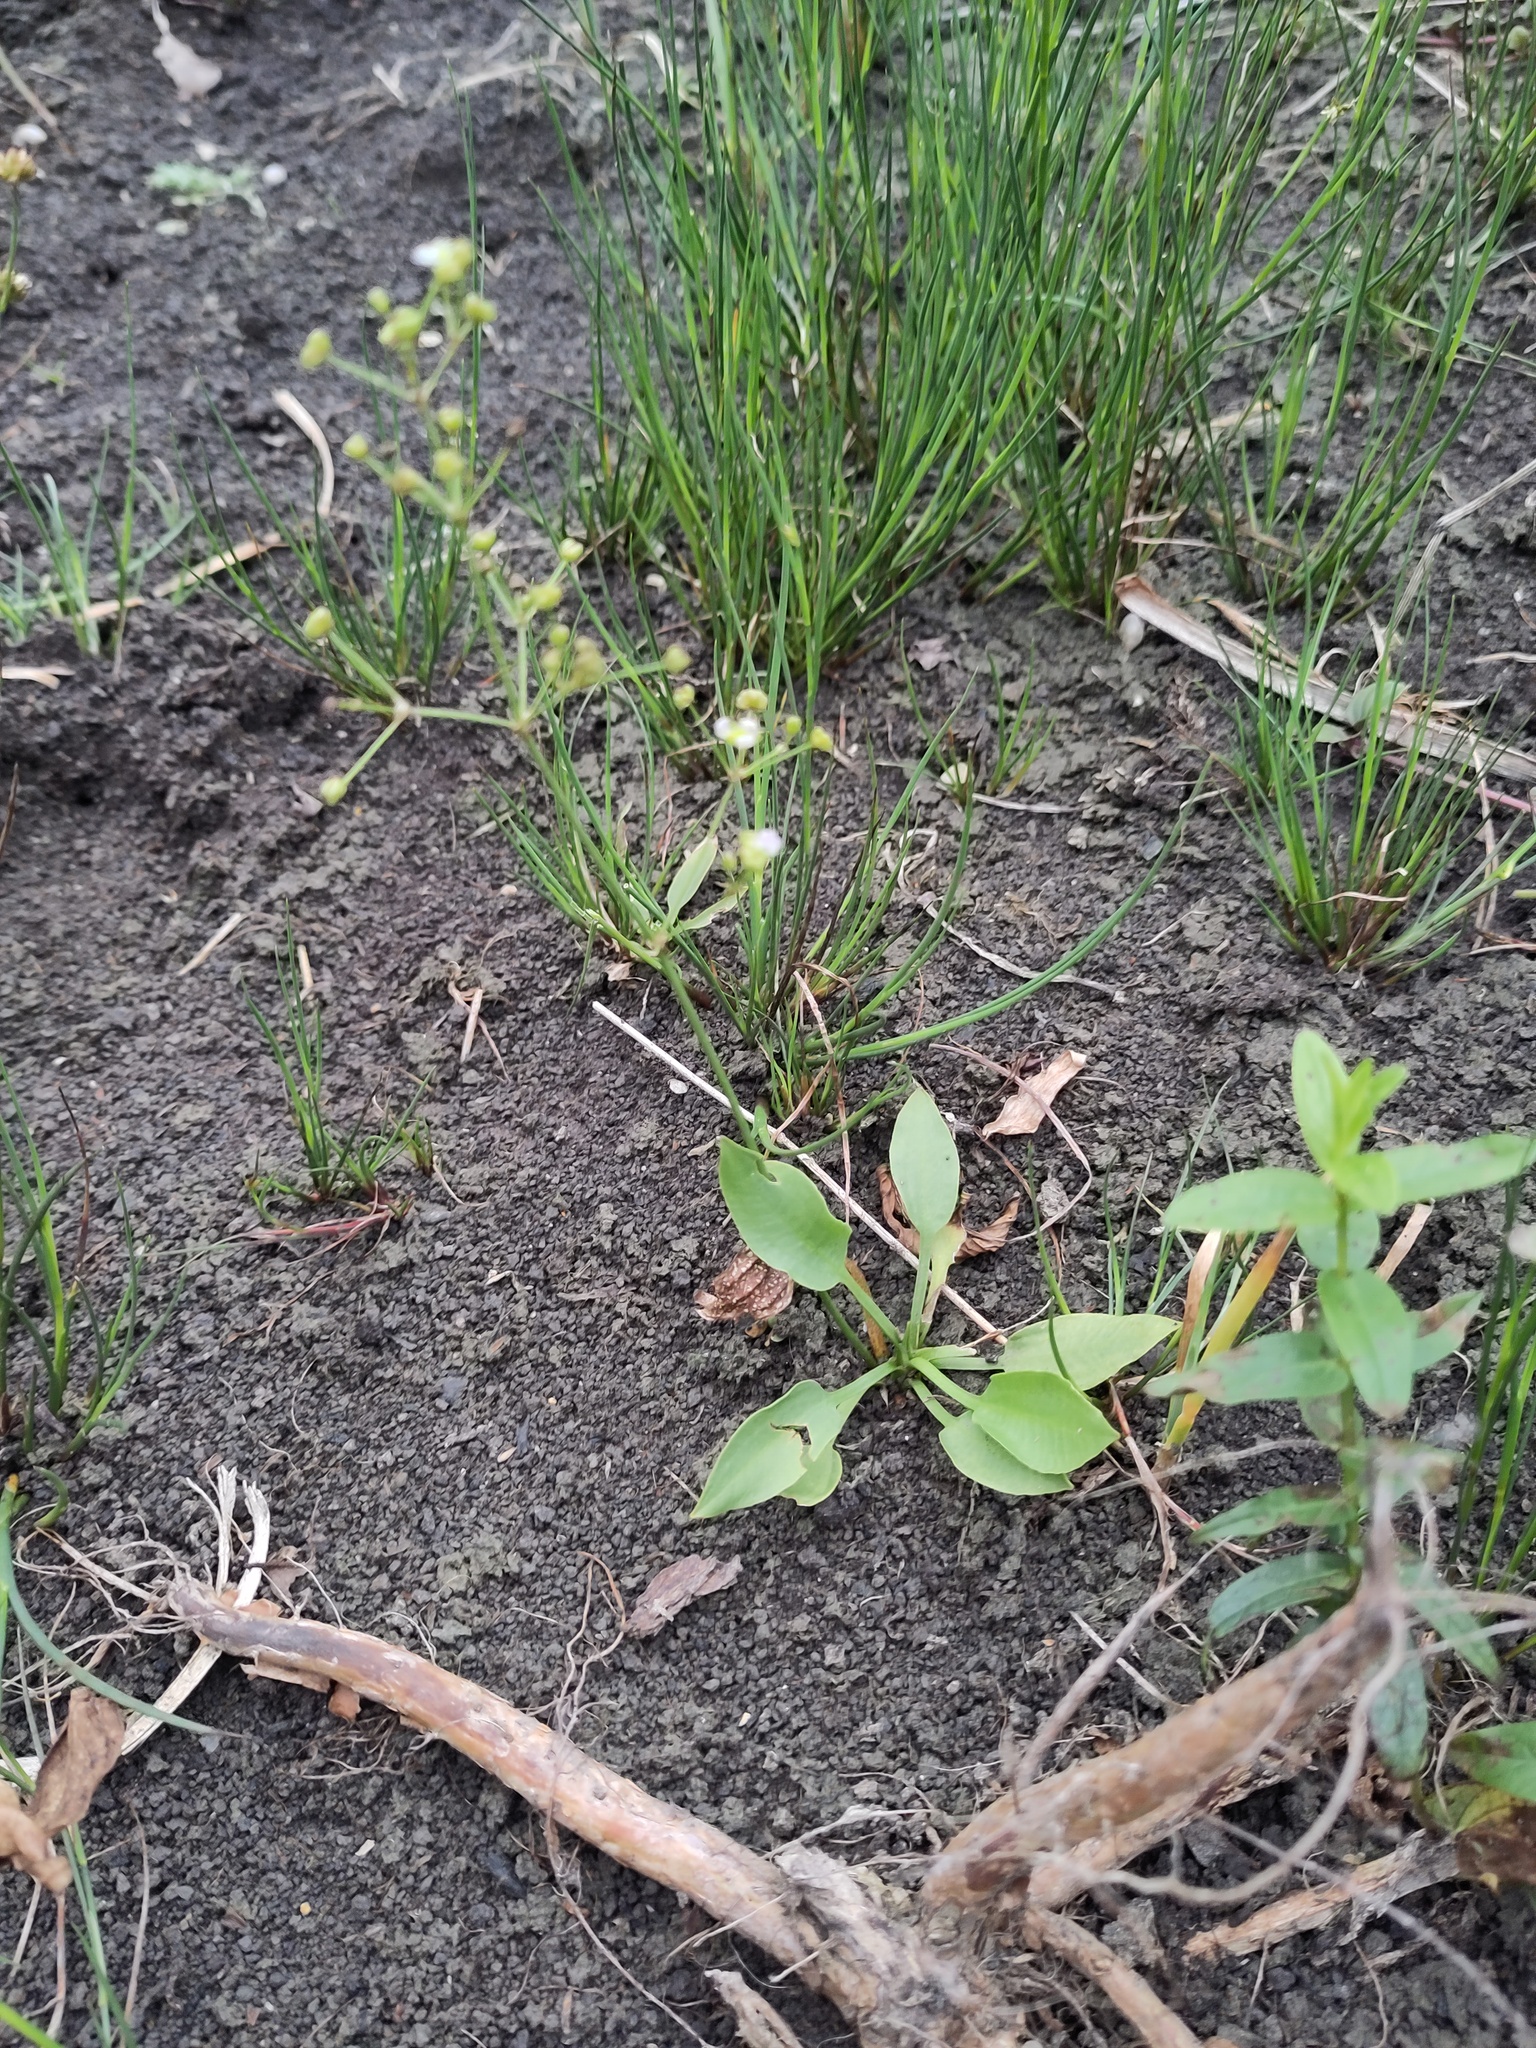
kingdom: Plantae
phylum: Tracheophyta
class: Liliopsida
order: Alismatales
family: Alismataceae
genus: Alisma
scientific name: Alisma plantago-aquatica
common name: Water-plantain
